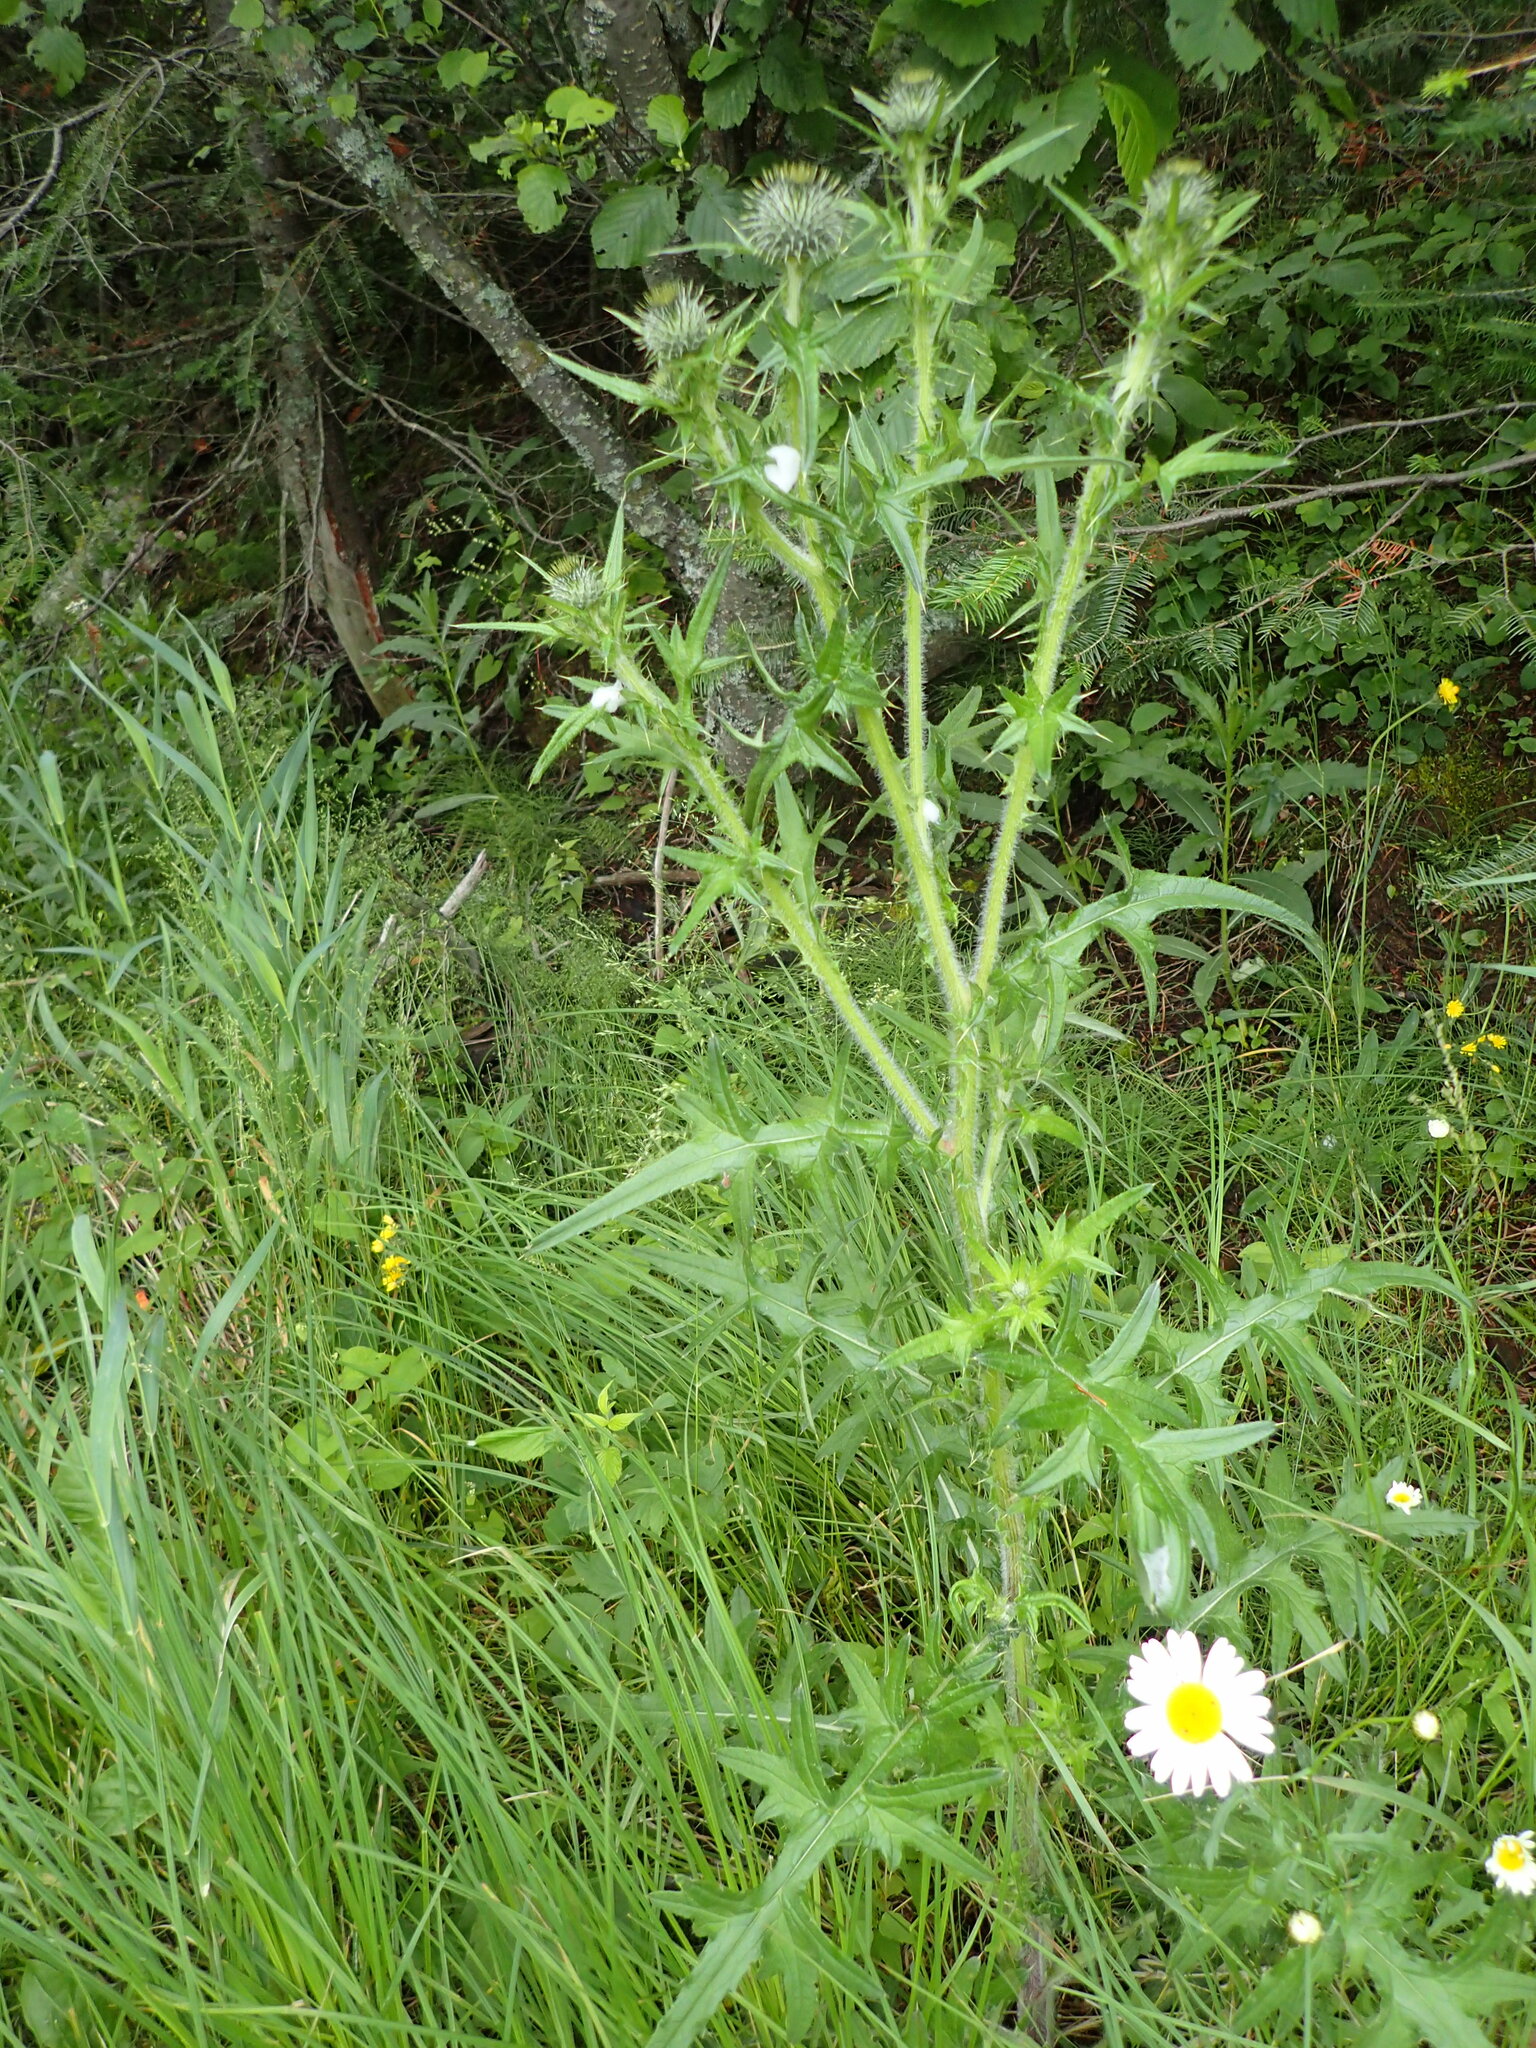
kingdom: Plantae
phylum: Tracheophyta
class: Magnoliopsida
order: Asterales
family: Asteraceae
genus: Cirsium
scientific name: Cirsium vulgare
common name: Bull thistle
